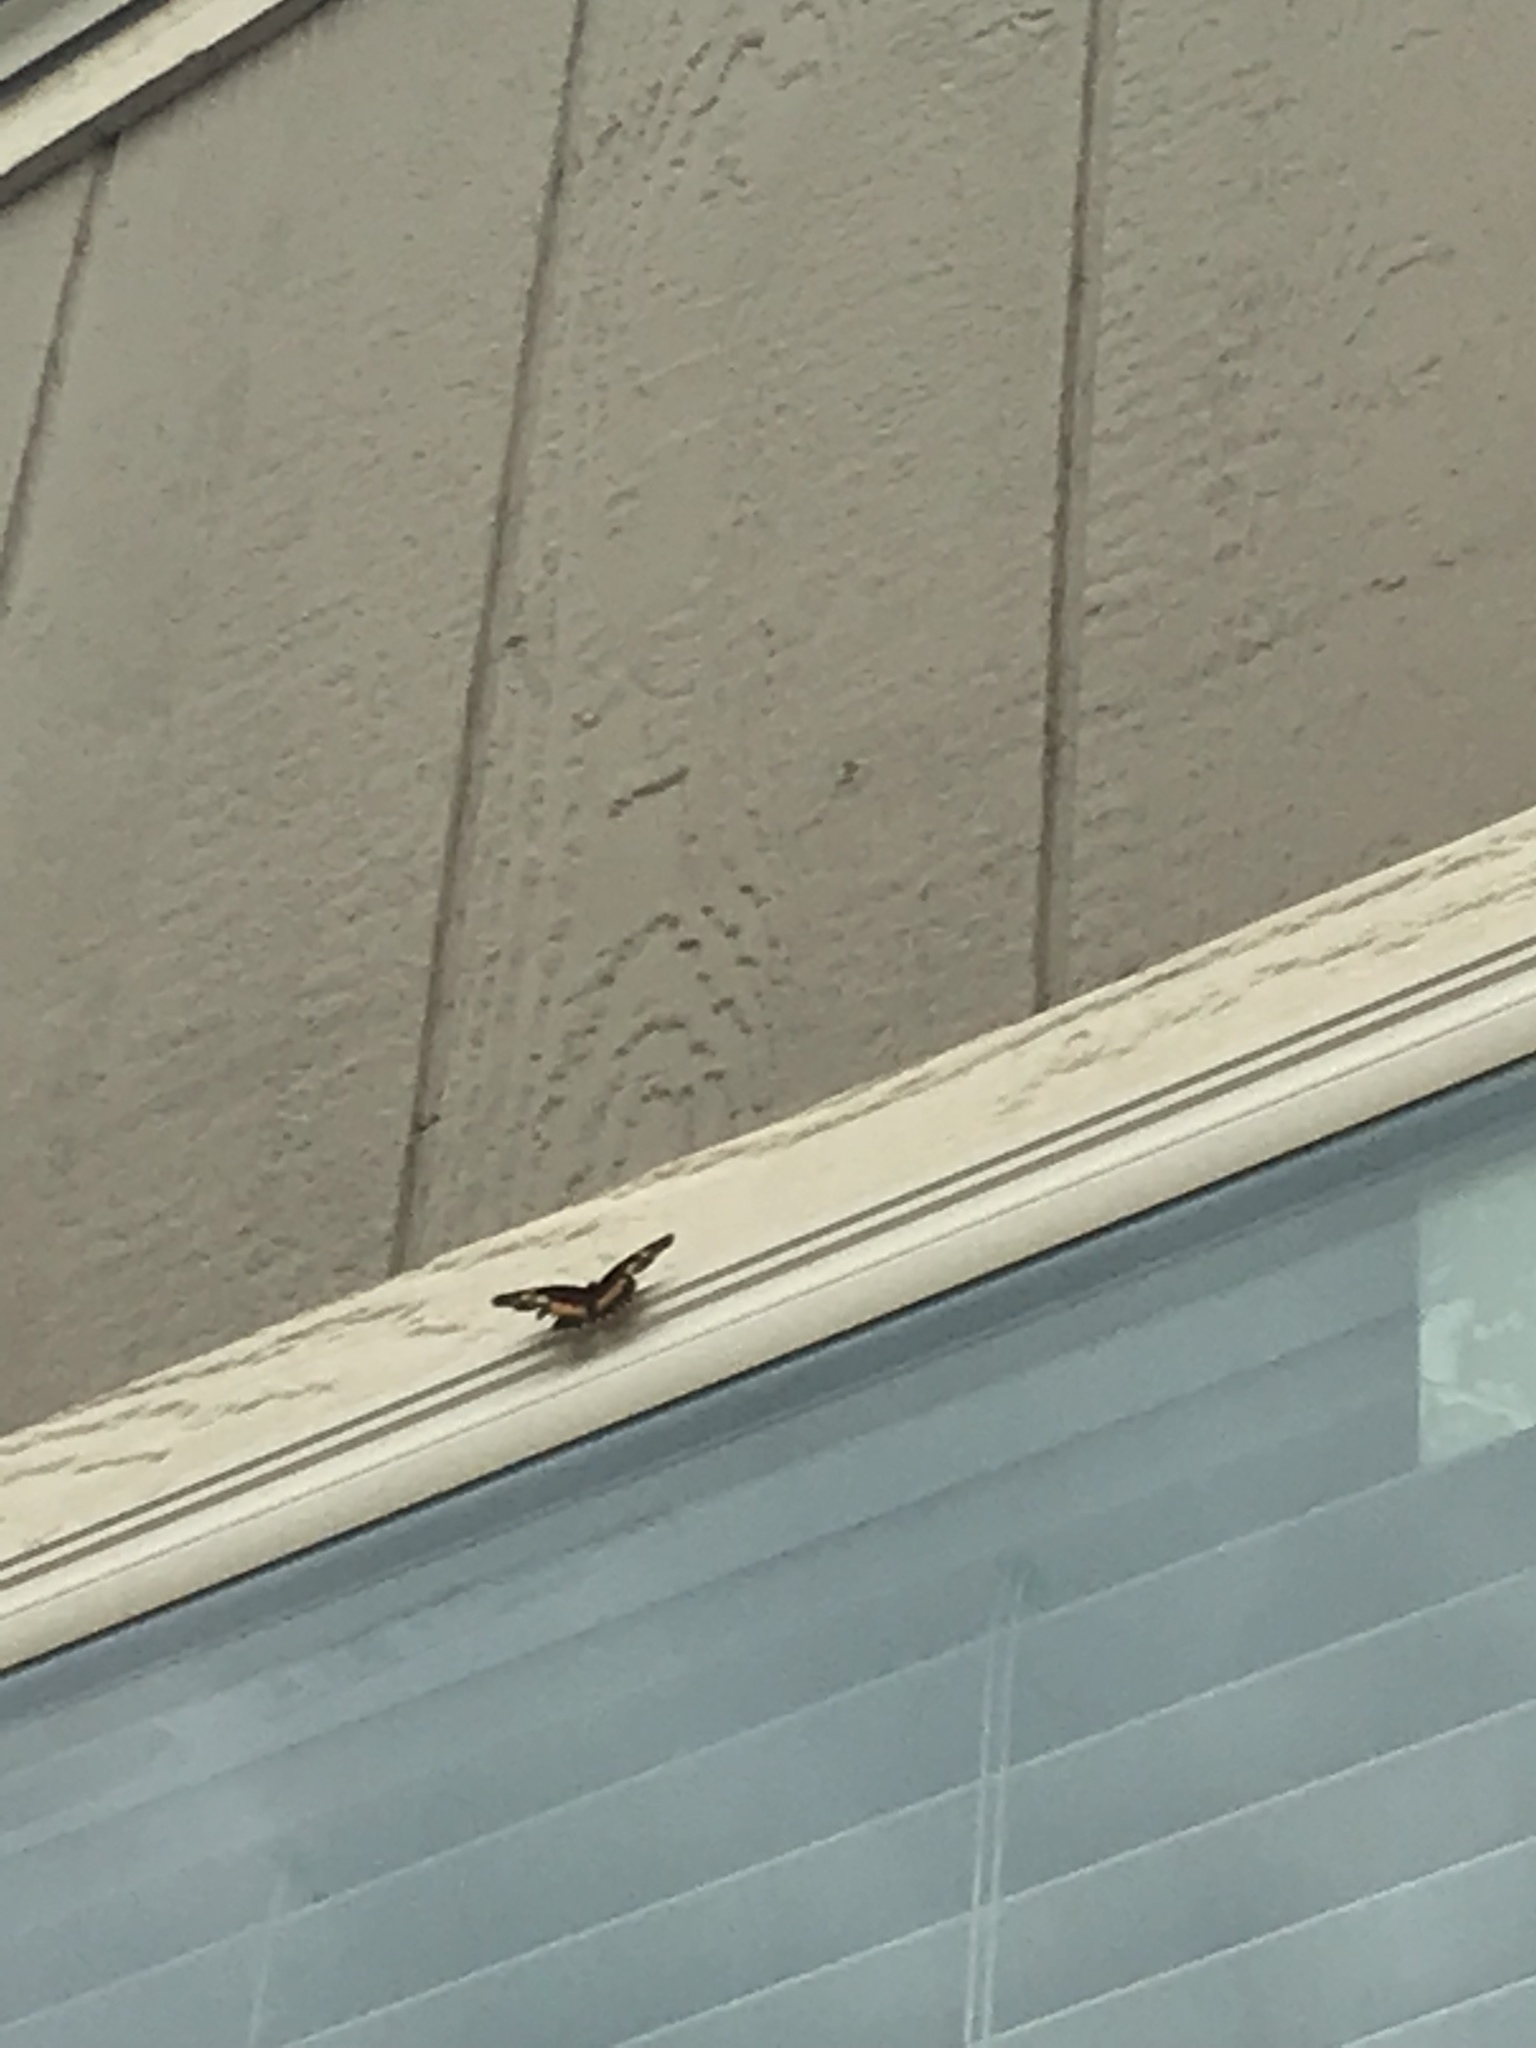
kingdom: Animalia
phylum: Arthropoda
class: Insecta
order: Lepidoptera
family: Nymphalidae
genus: Chlosyne
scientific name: Chlosyne lacinia
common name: Bordered patch
